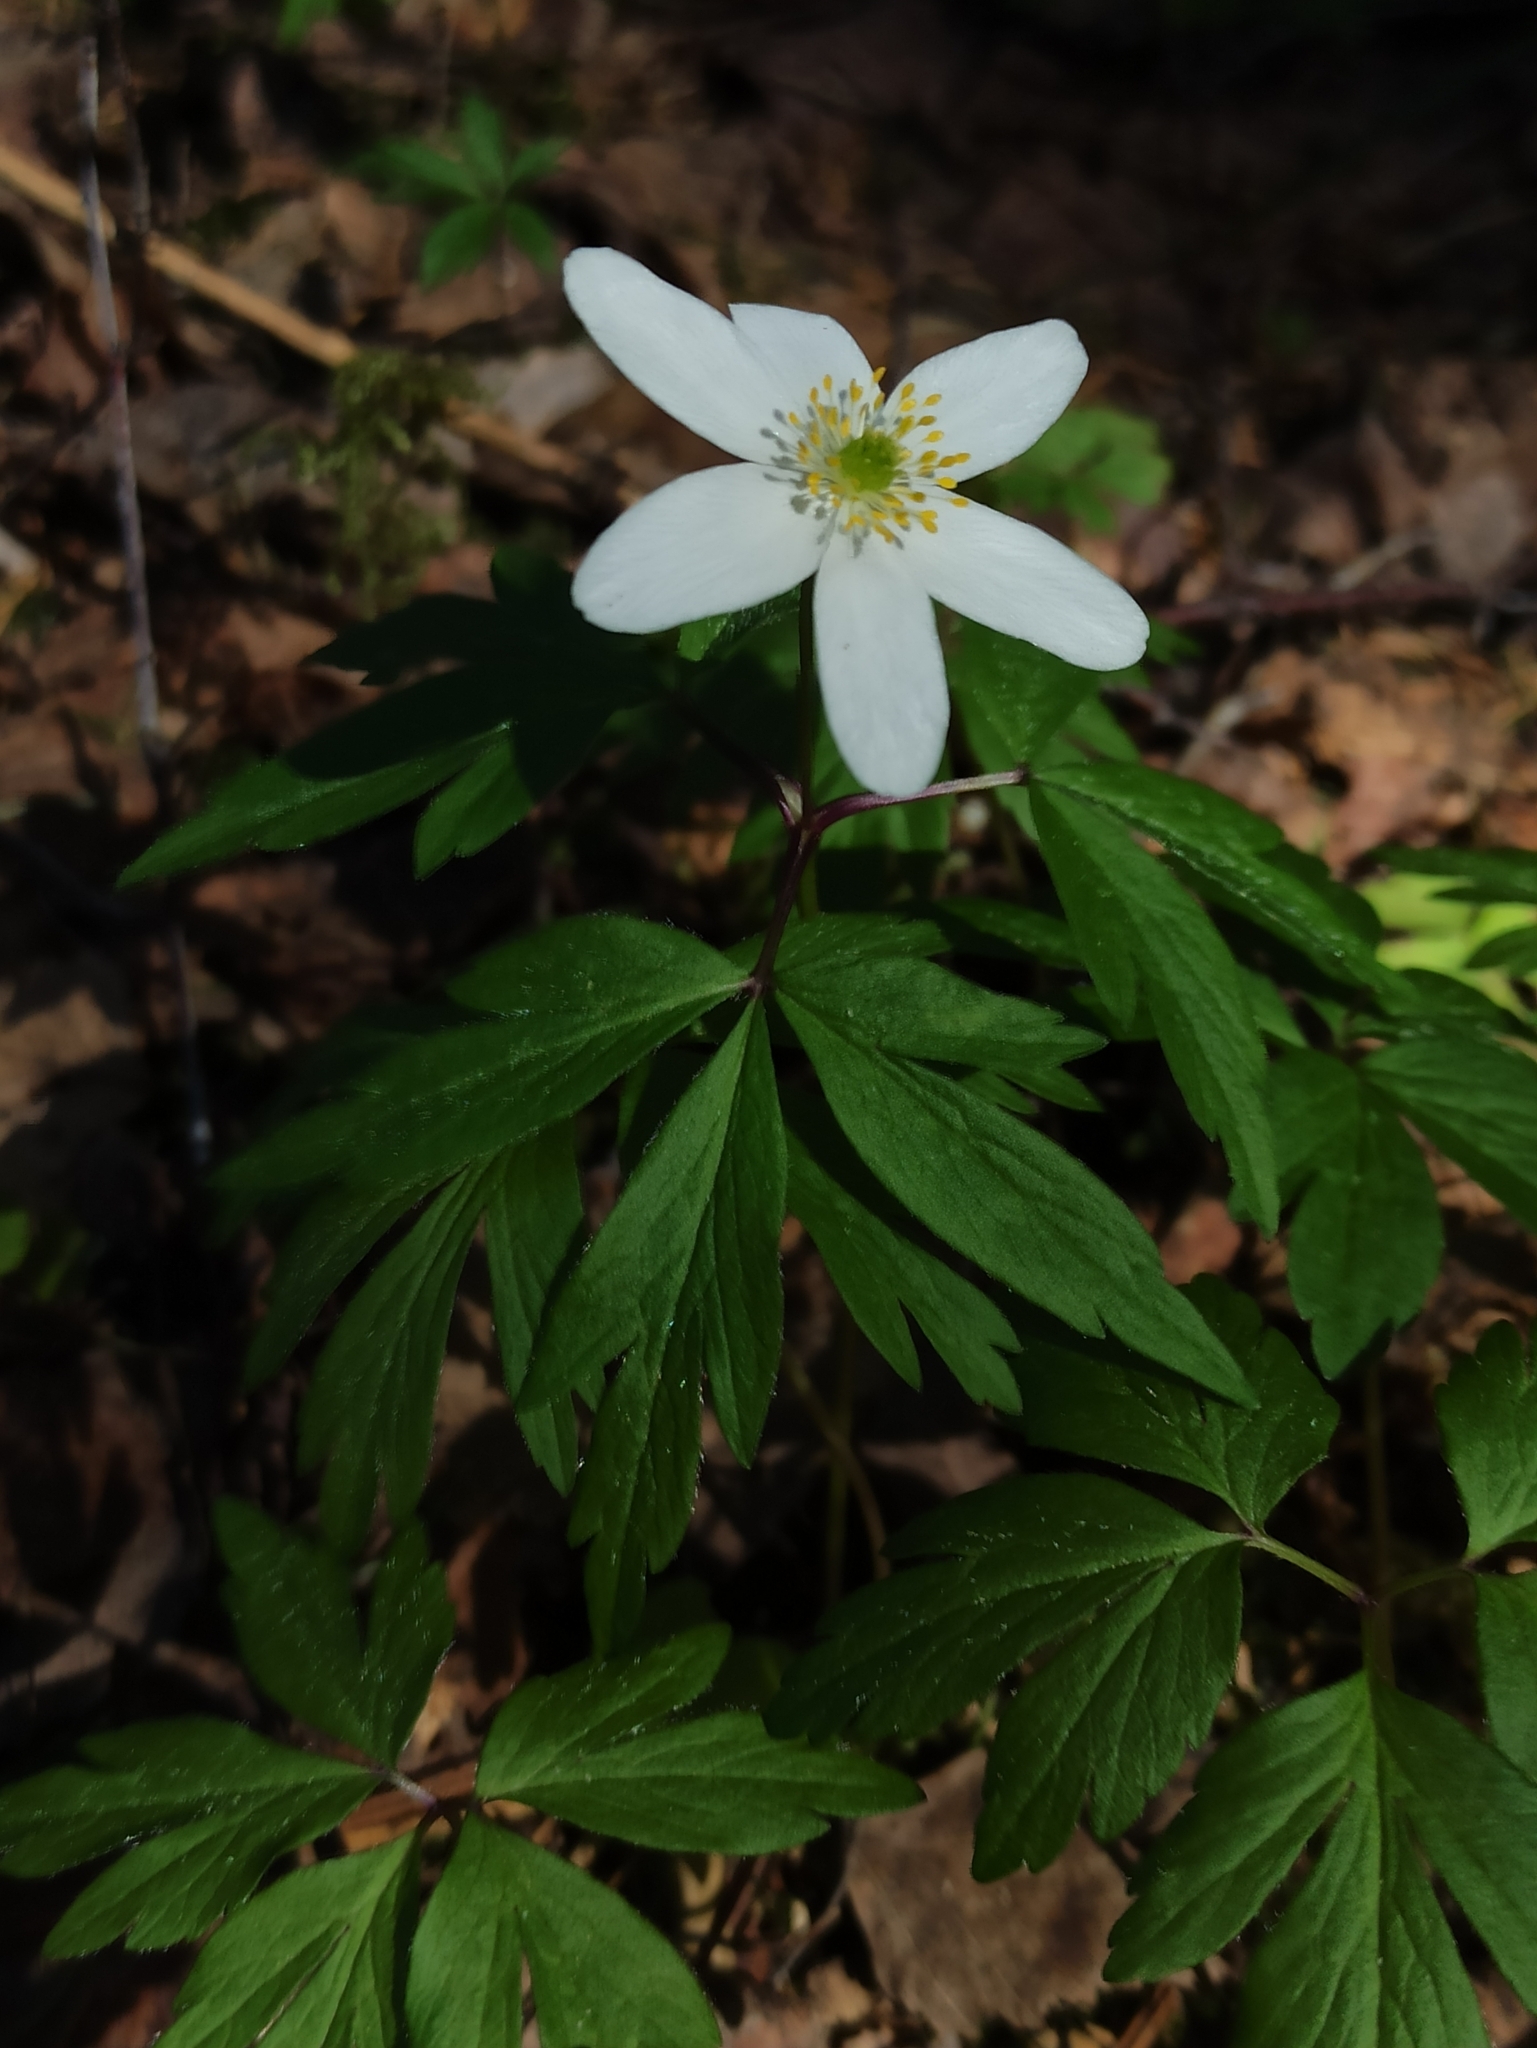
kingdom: Plantae
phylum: Tracheophyta
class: Magnoliopsida
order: Ranunculales
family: Ranunculaceae
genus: Anemone
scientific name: Anemone nemorosa
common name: Wood anemone
